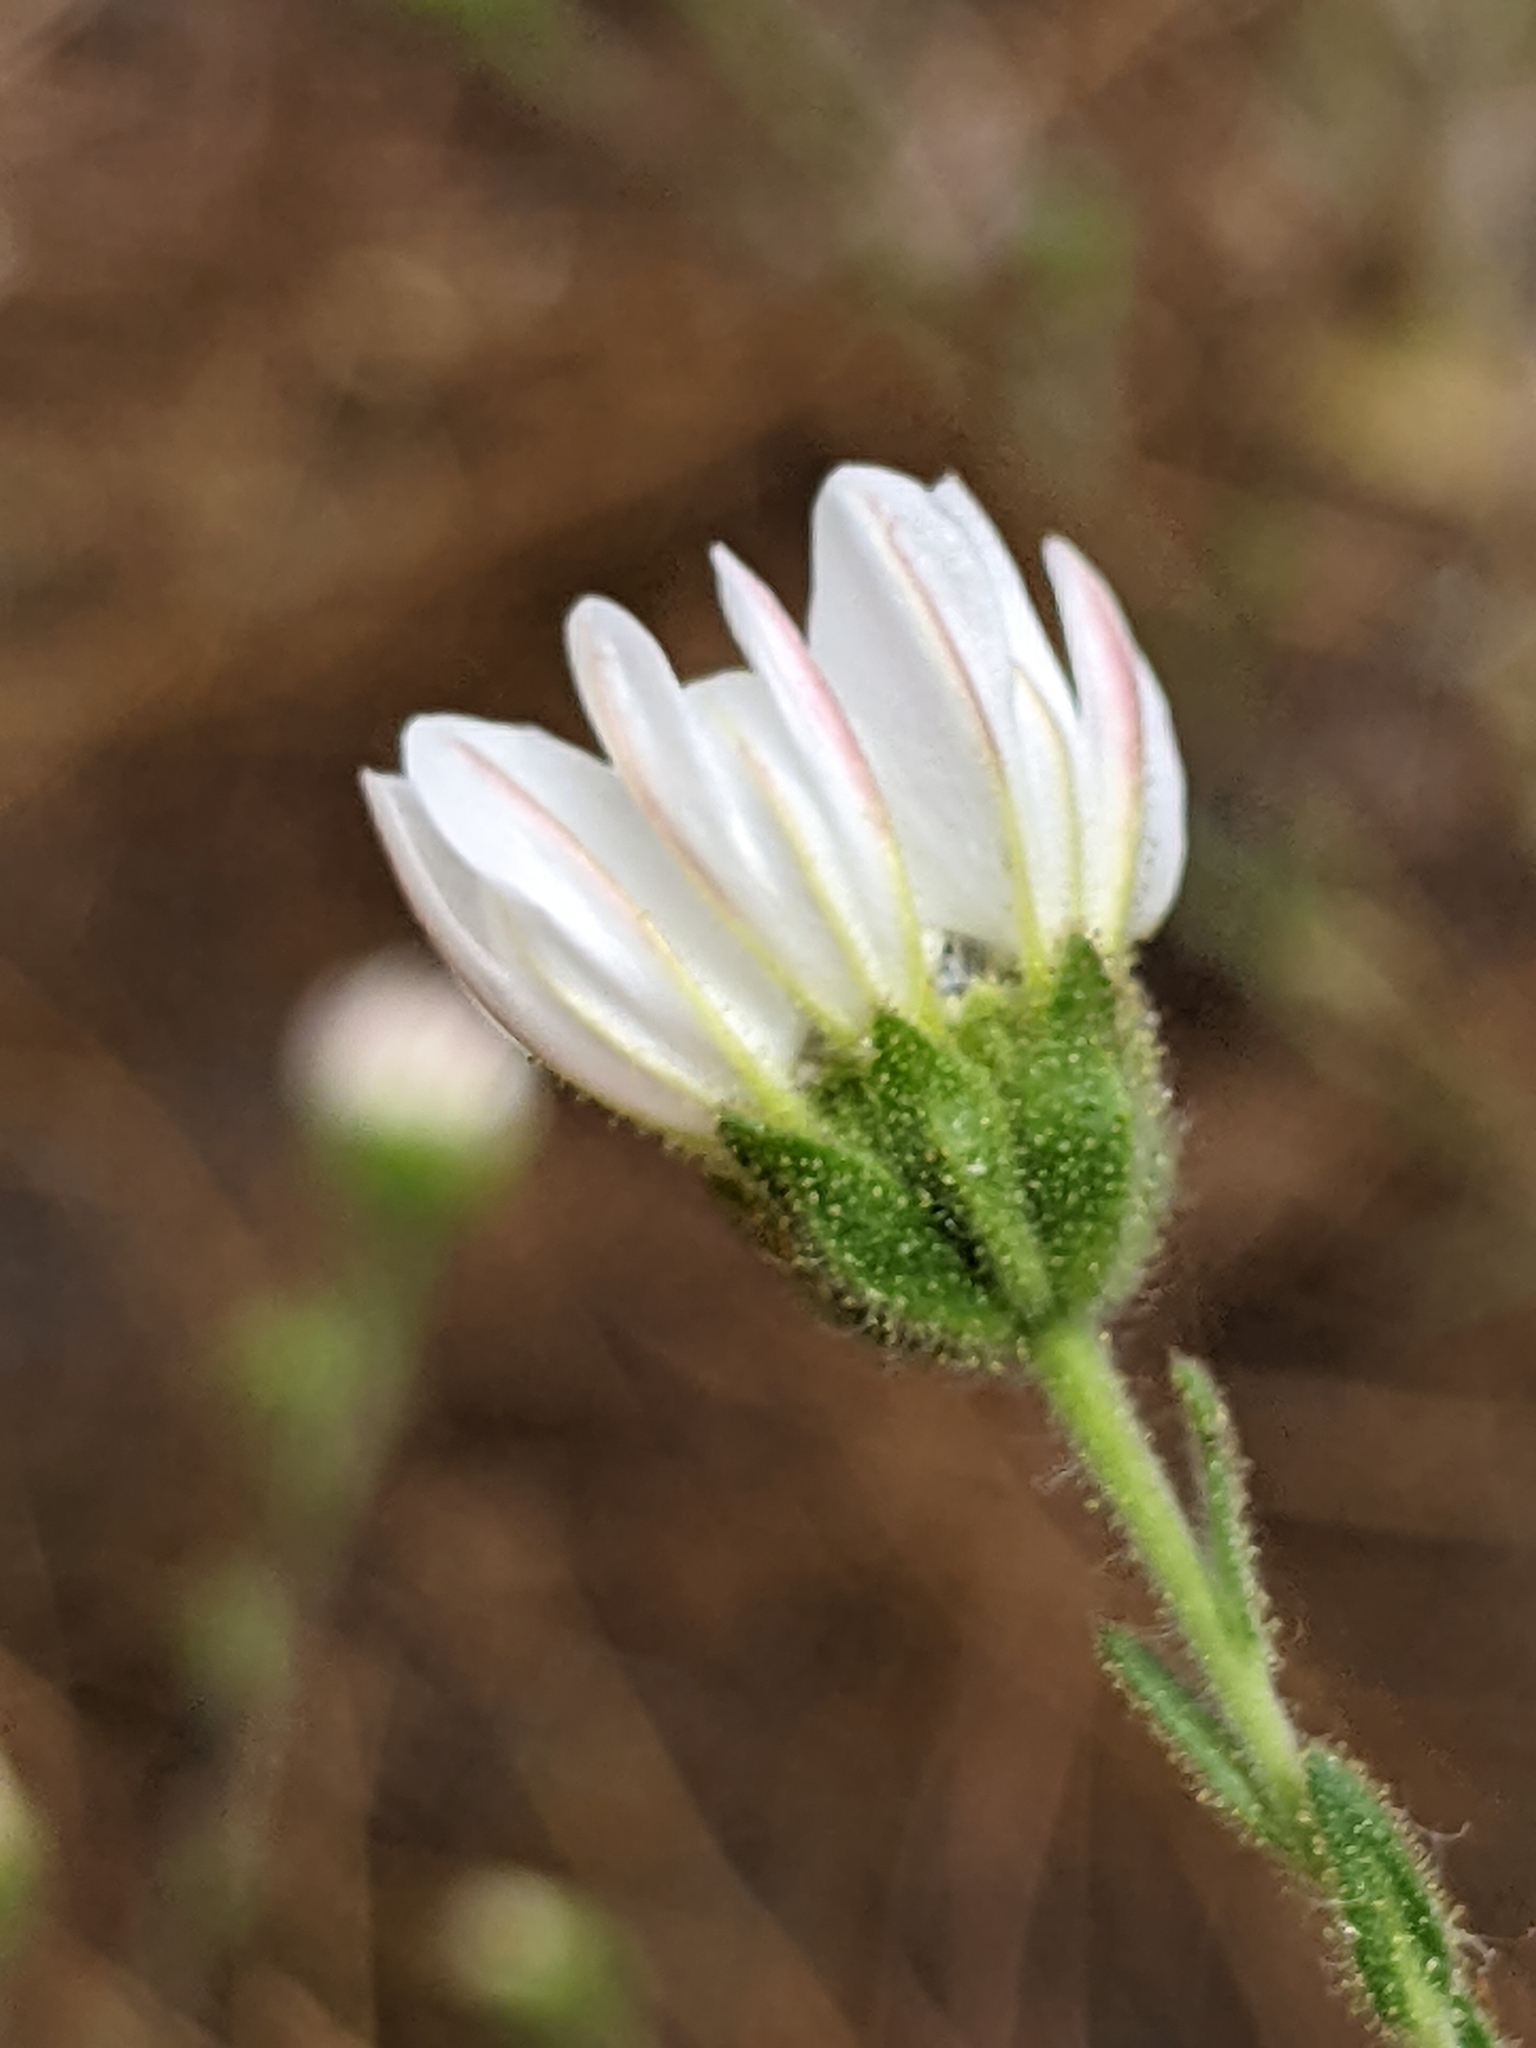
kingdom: Plantae
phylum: Tracheophyta
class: Magnoliopsida
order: Asterales
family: Asteraceae
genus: Hemizonia
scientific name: Hemizonia congesta
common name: Hayfield tarweed
